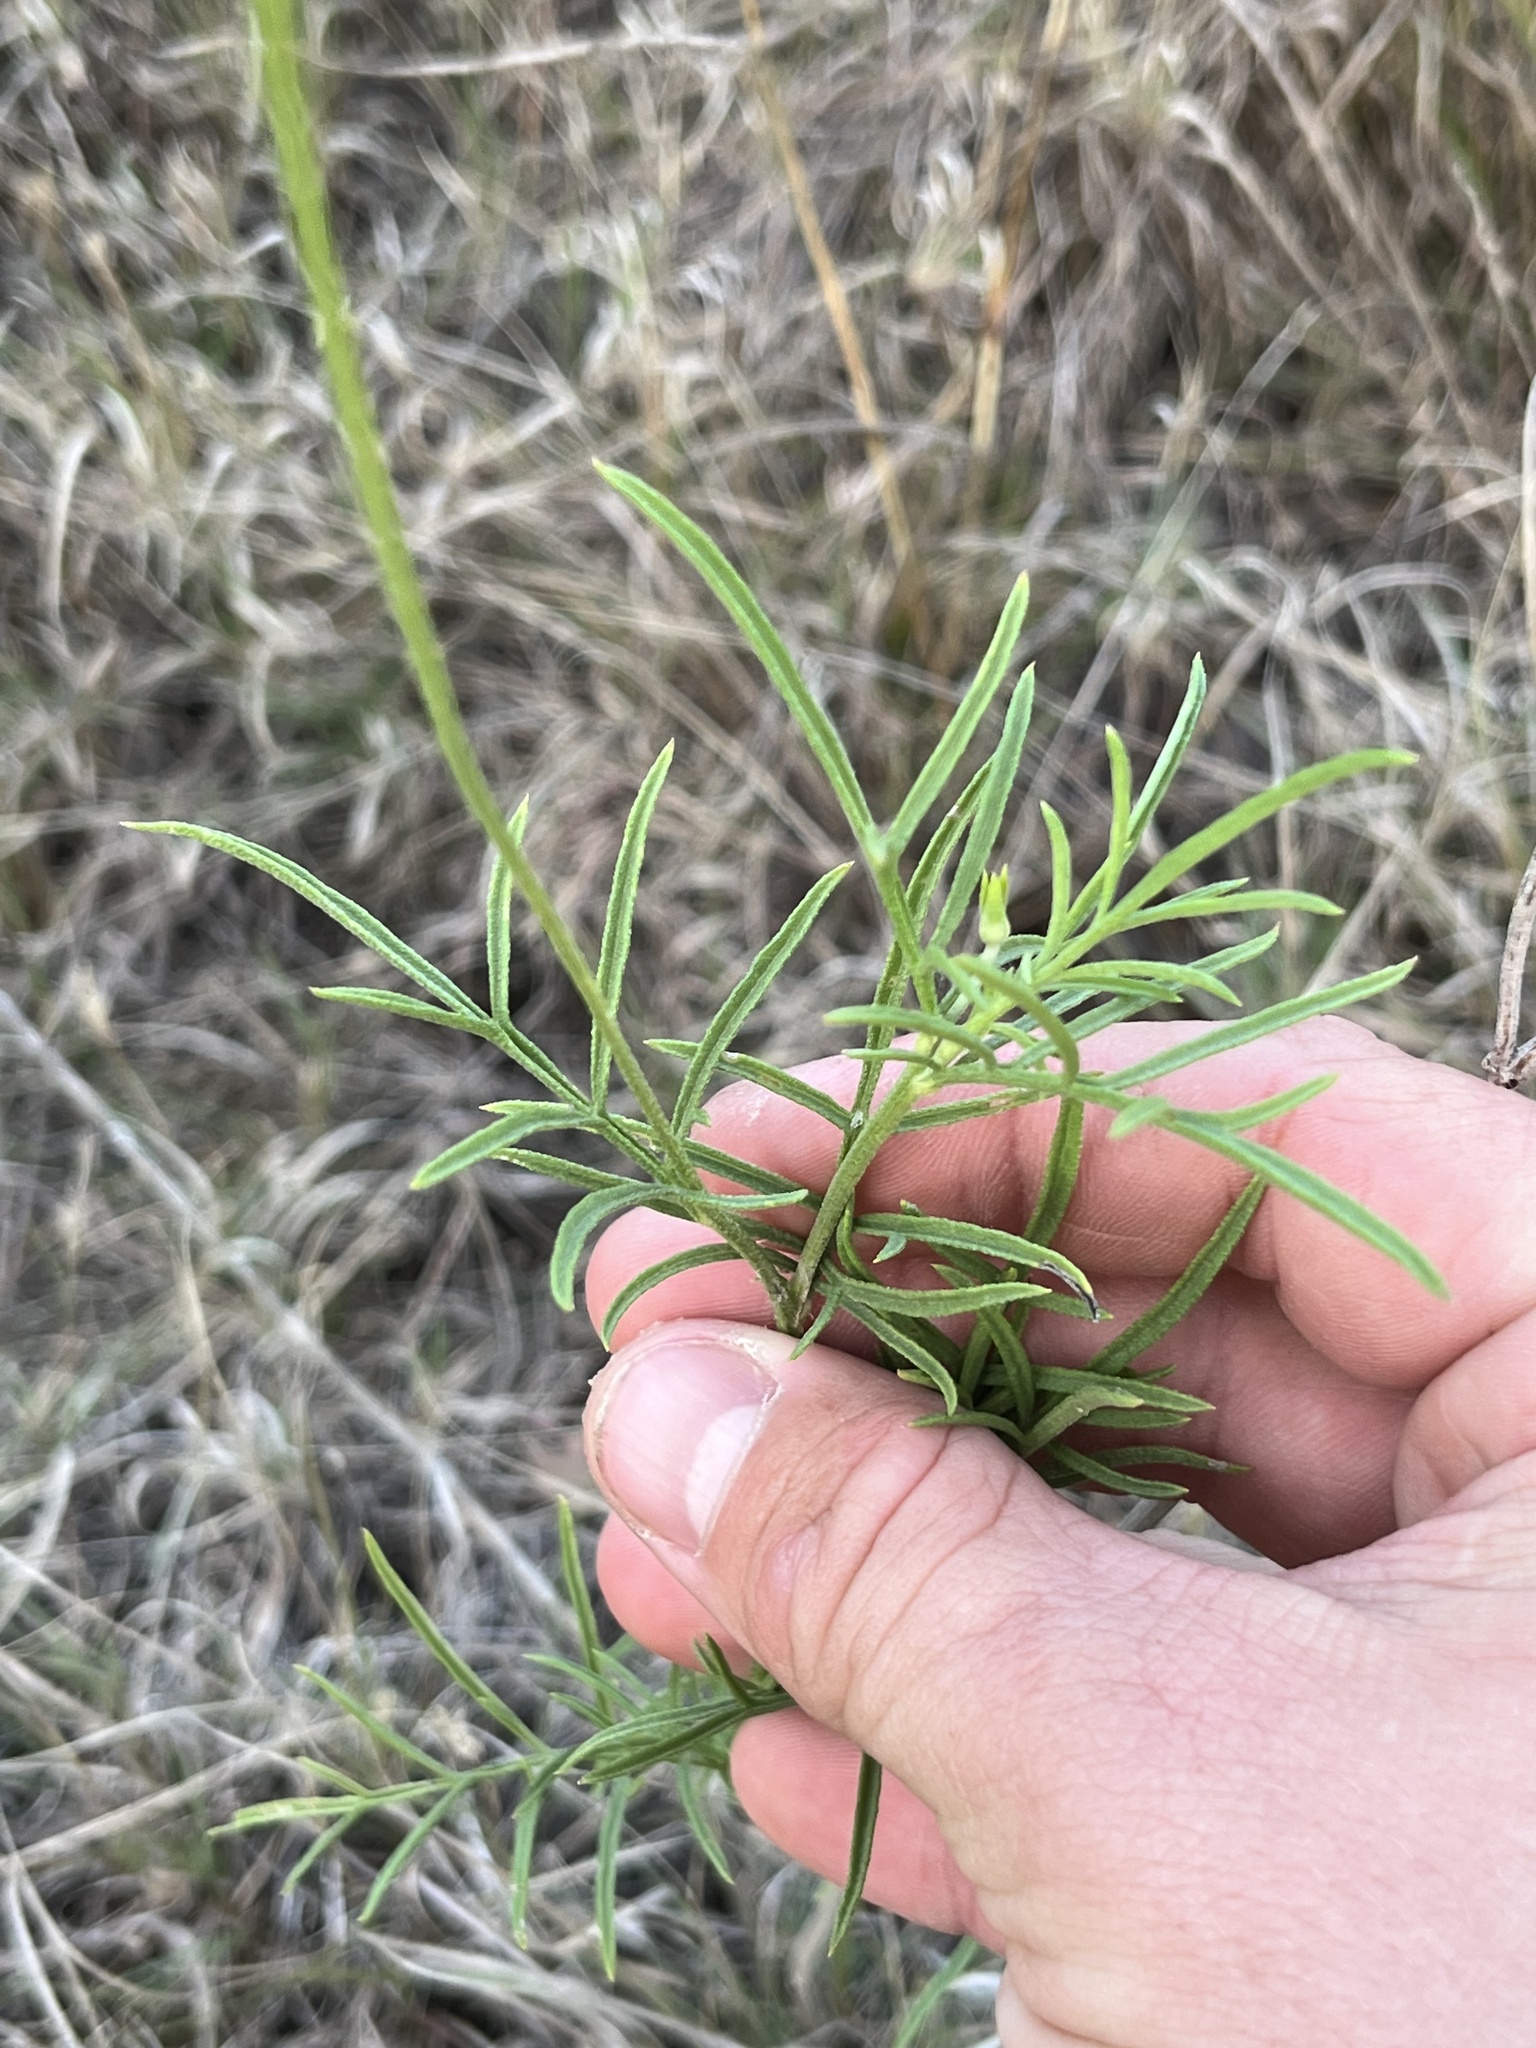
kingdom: Plantae
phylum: Tracheophyta
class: Magnoliopsida
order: Asterales
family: Asteraceae
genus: Ratibida
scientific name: Ratibida columnifera
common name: Prairie coneflower
